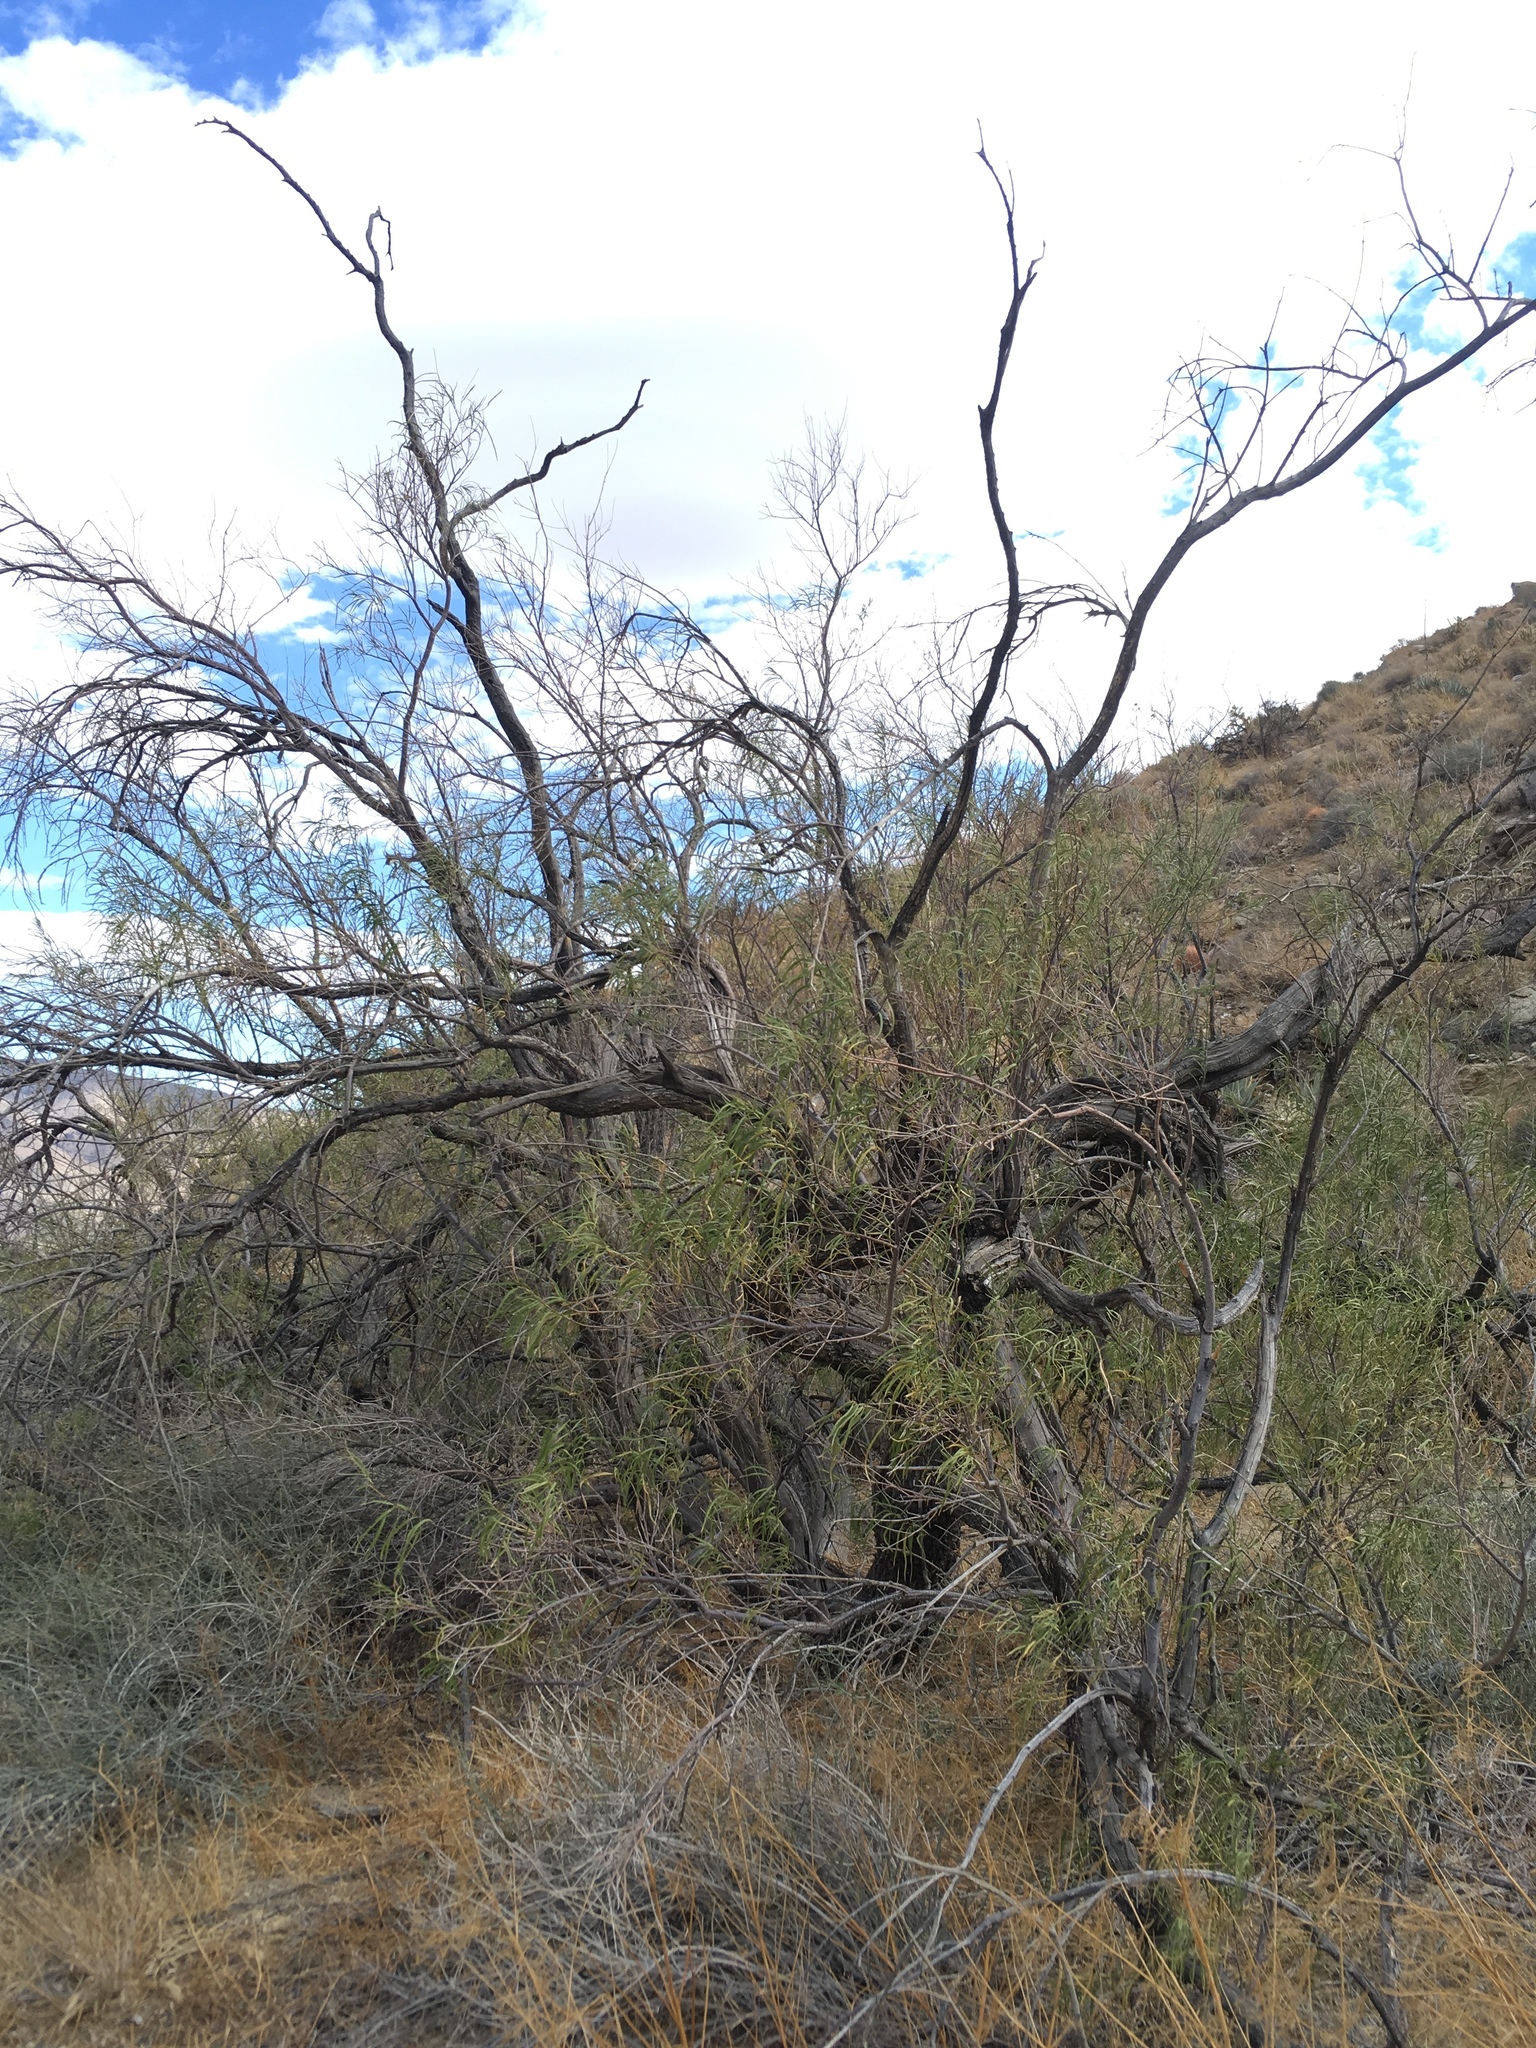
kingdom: Plantae
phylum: Tracheophyta
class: Magnoliopsida
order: Lamiales
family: Bignoniaceae
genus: Chilopsis
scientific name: Chilopsis linearis
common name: Desert-willow
